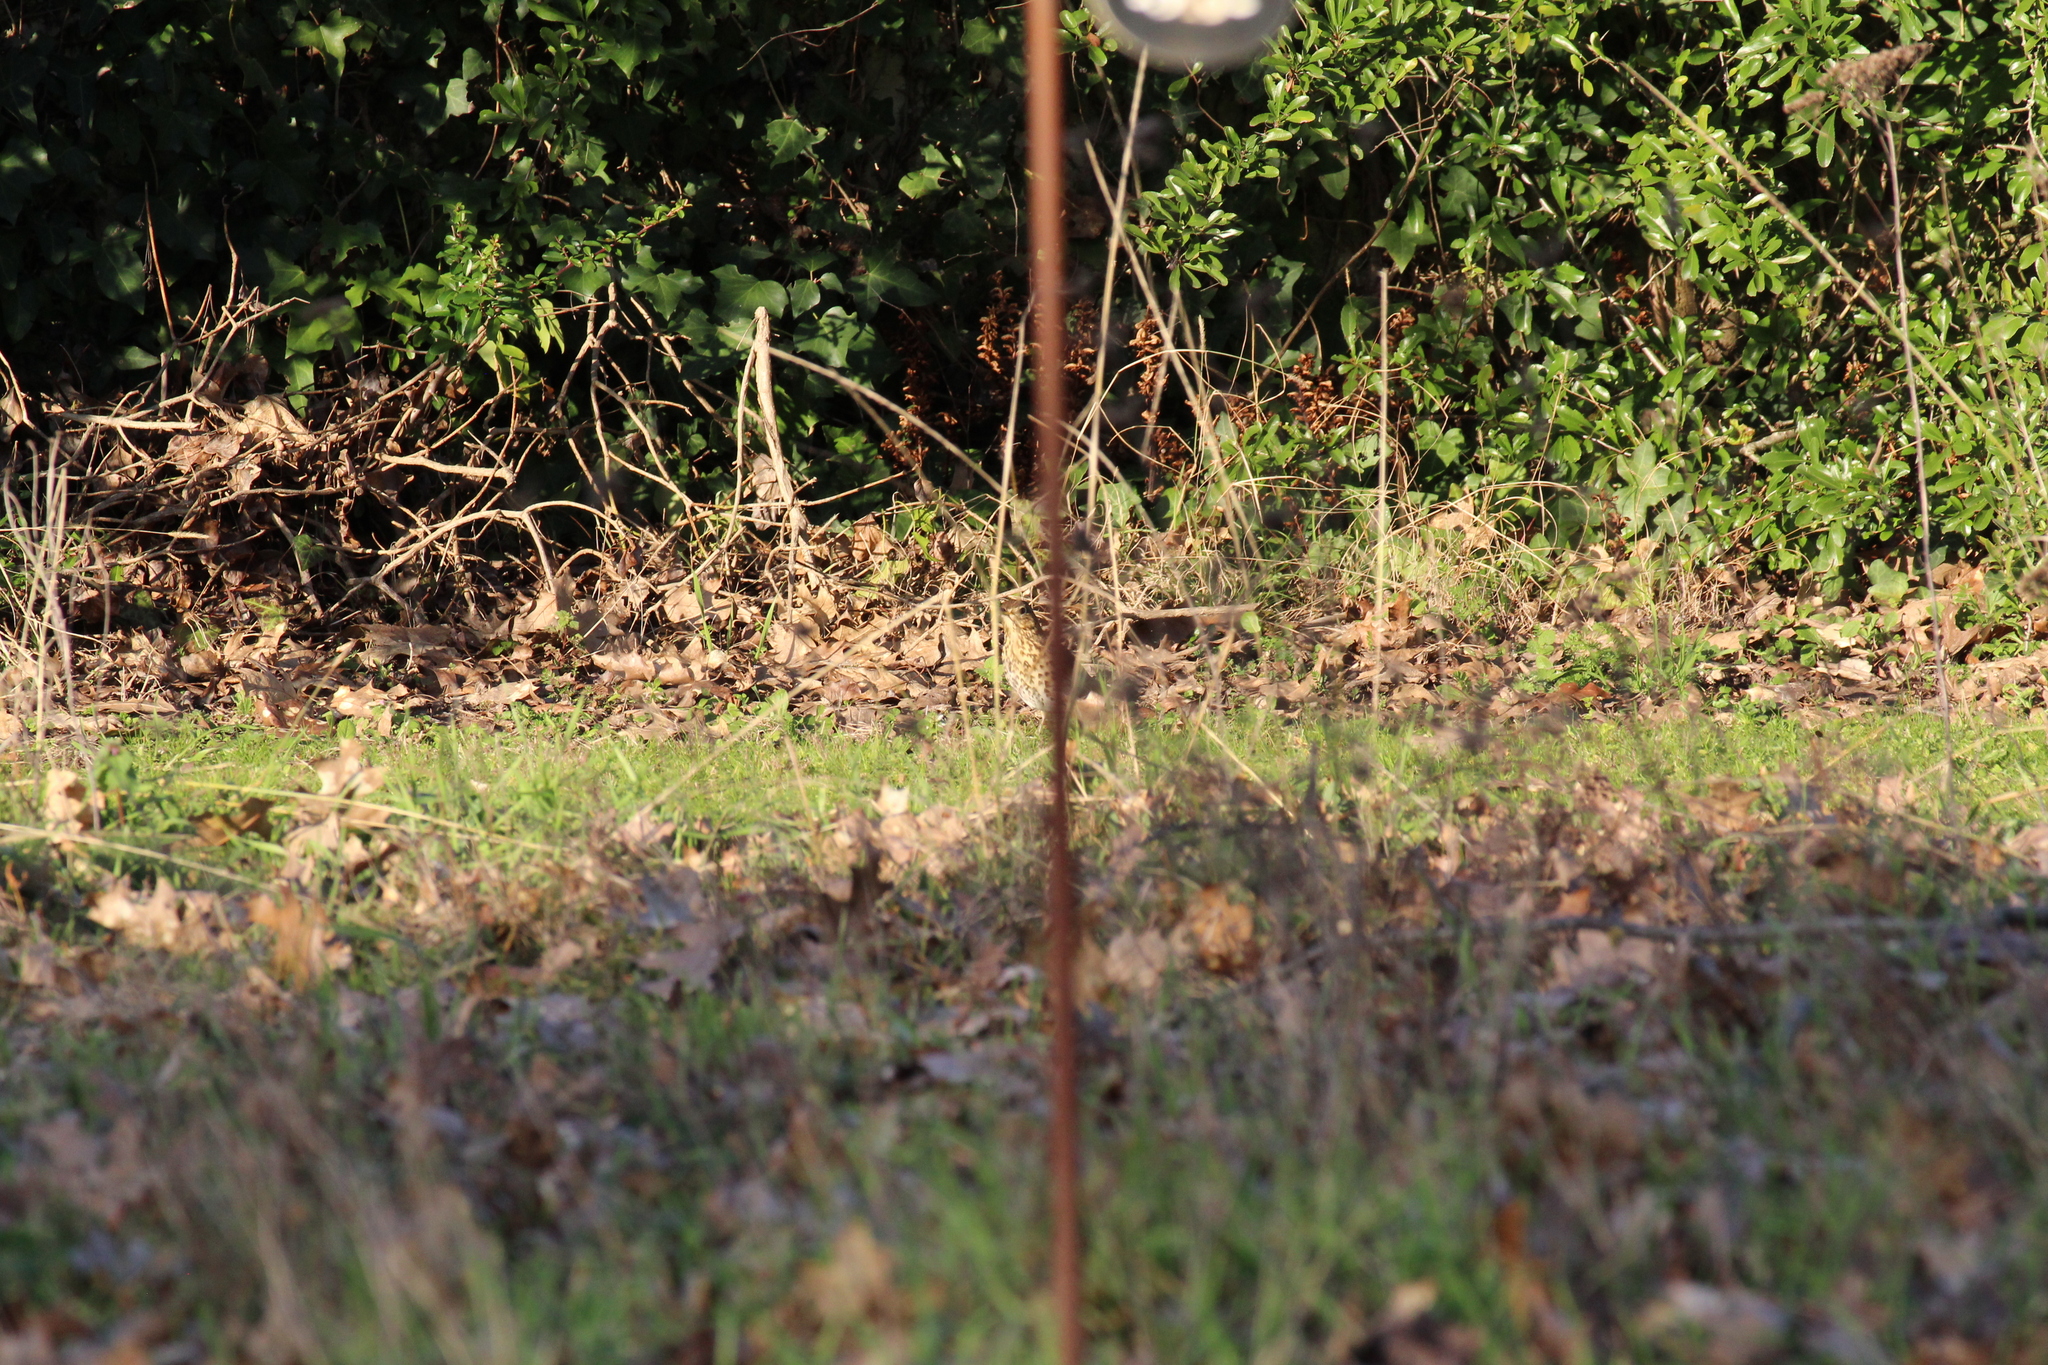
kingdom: Animalia
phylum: Chordata
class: Aves
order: Passeriformes
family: Turdidae
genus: Turdus
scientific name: Turdus philomelos
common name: Song thrush
